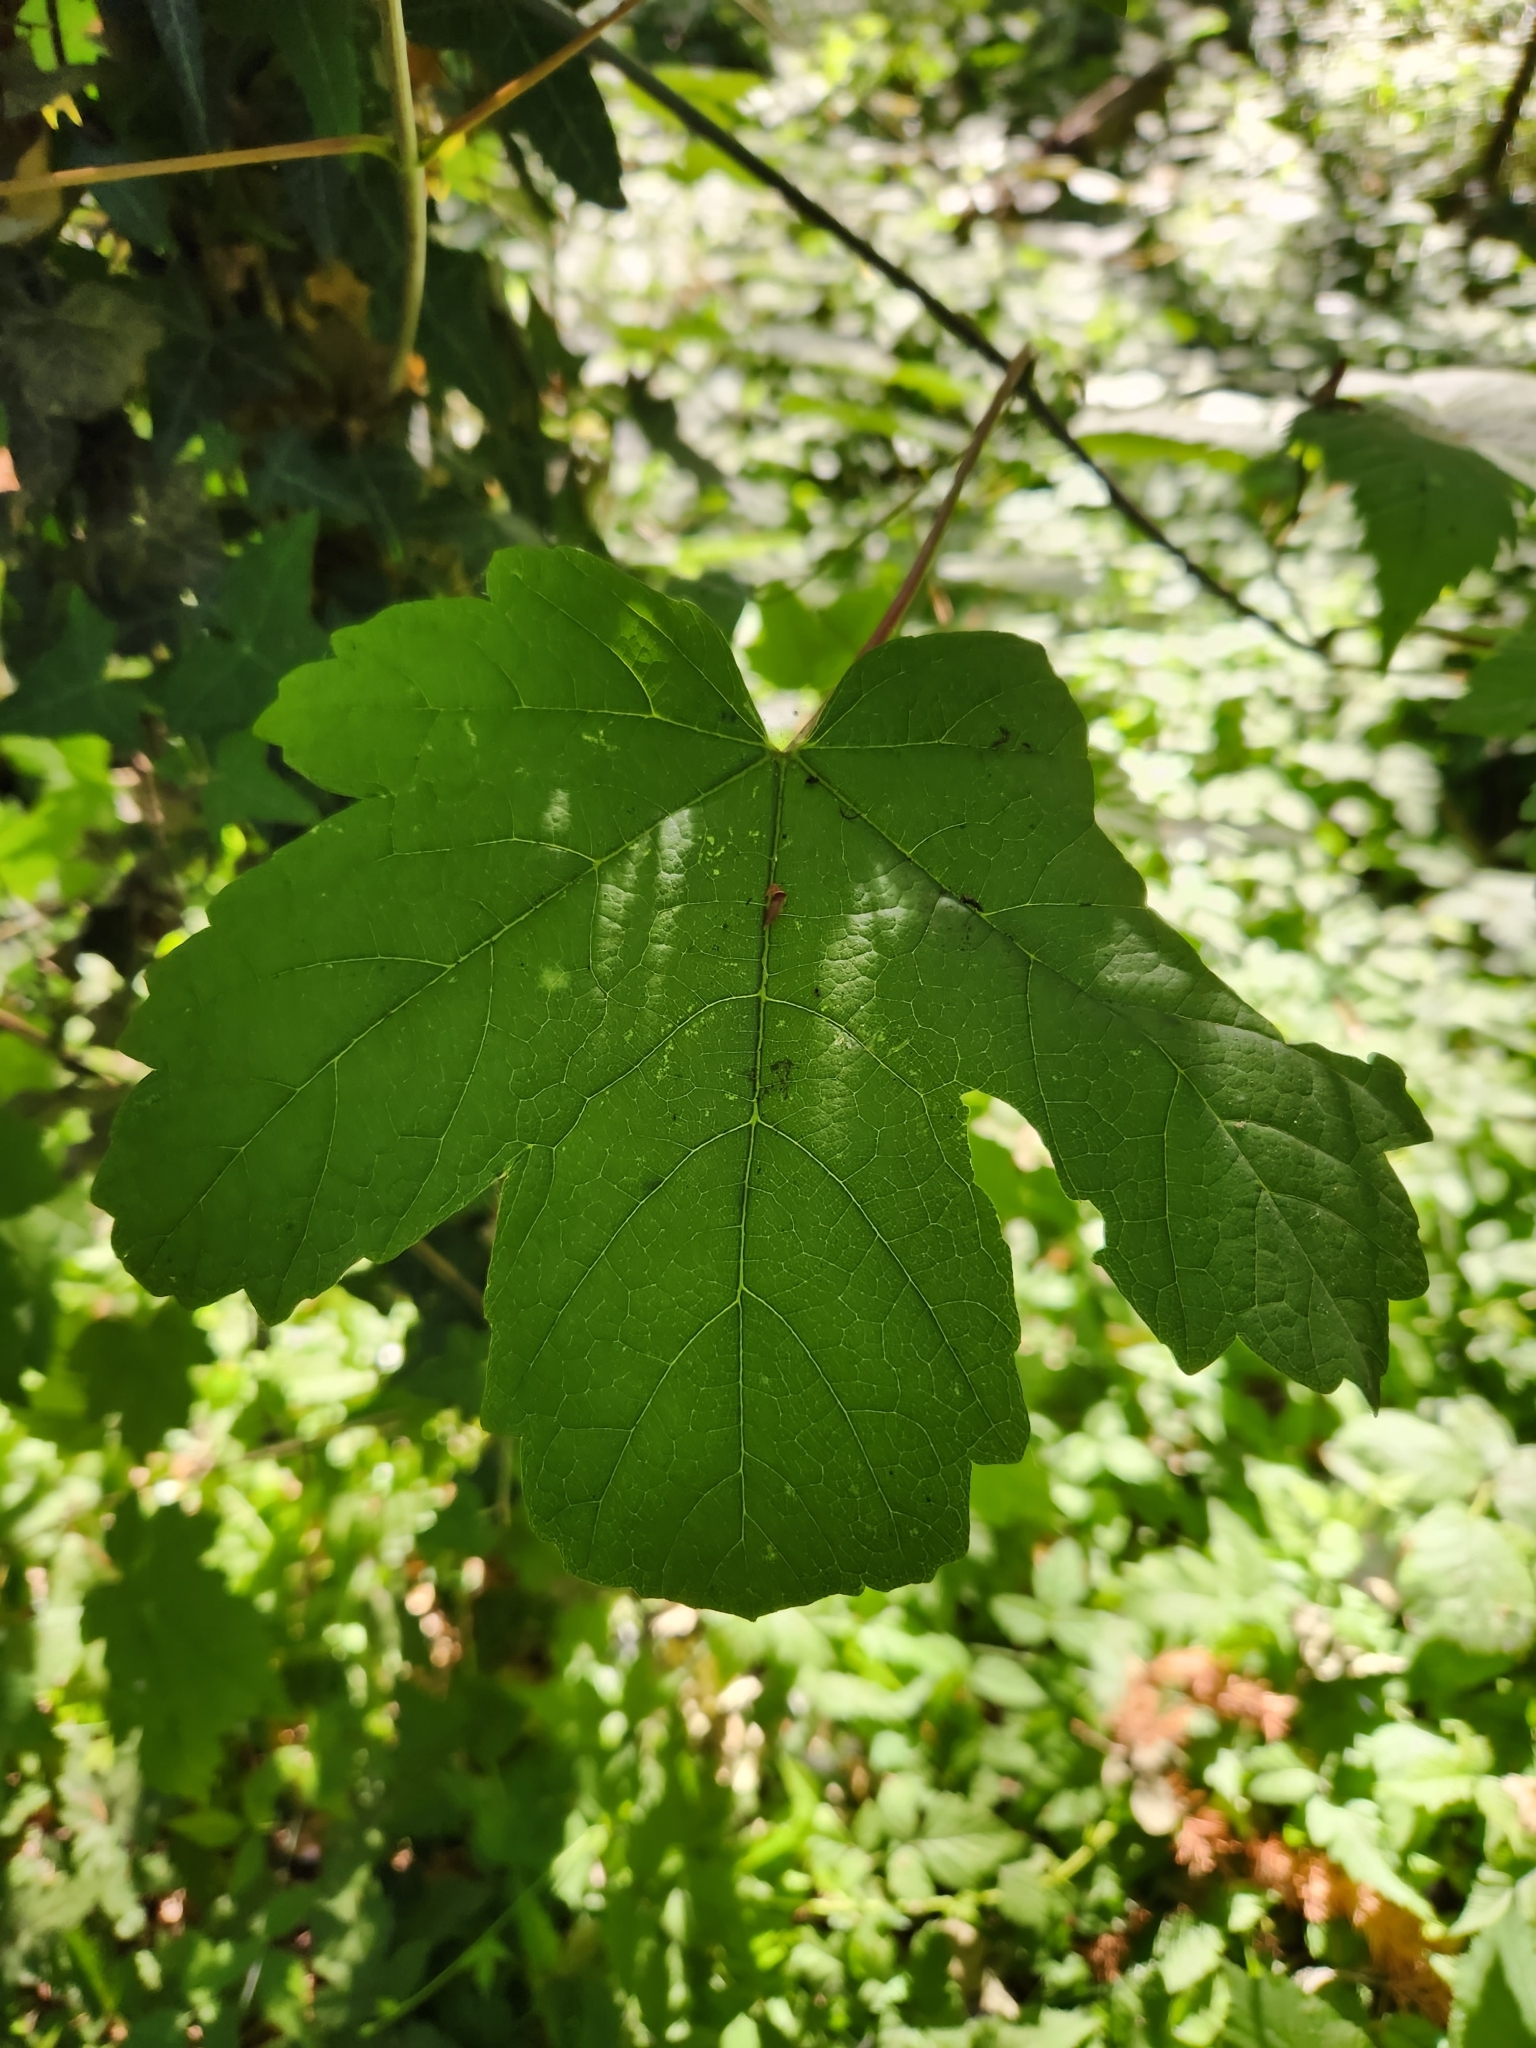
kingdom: Plantae
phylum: Tracheophyta
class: Magnoliopsida
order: Sapindales
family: Sapindaceae
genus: Acer
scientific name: Acer pseudoplatanus
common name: Sycamore
